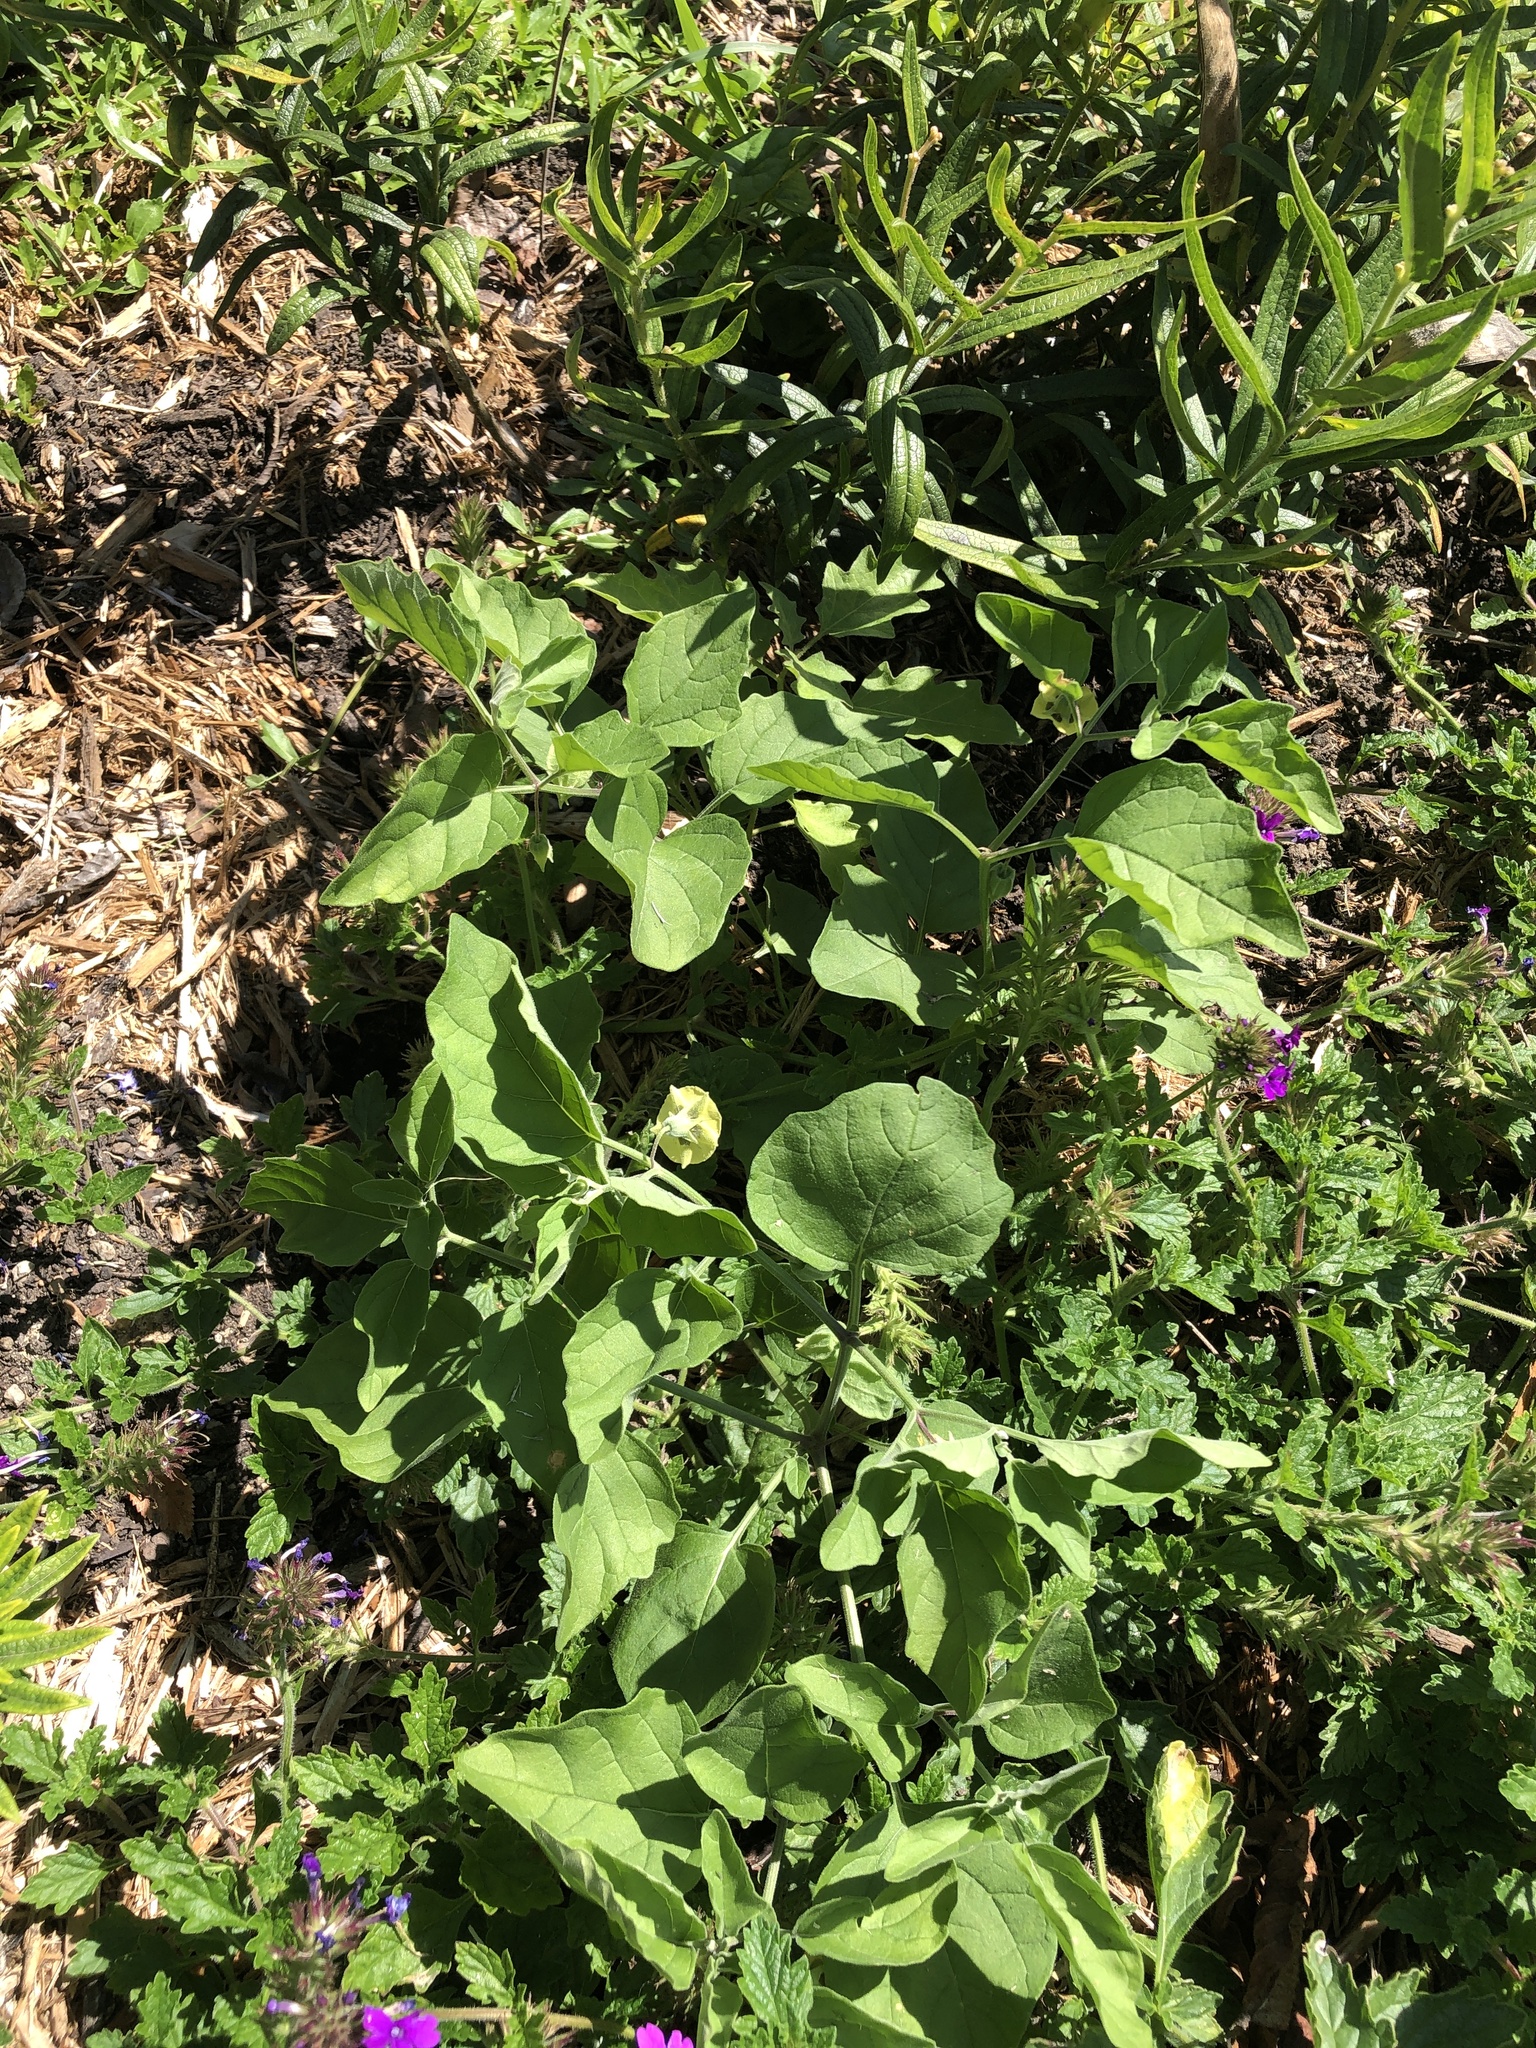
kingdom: Plantae
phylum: Tracheophyta
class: Magnoliopsida
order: Solanales
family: Solanaceae
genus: Physalis
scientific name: Physalis cinerascens
